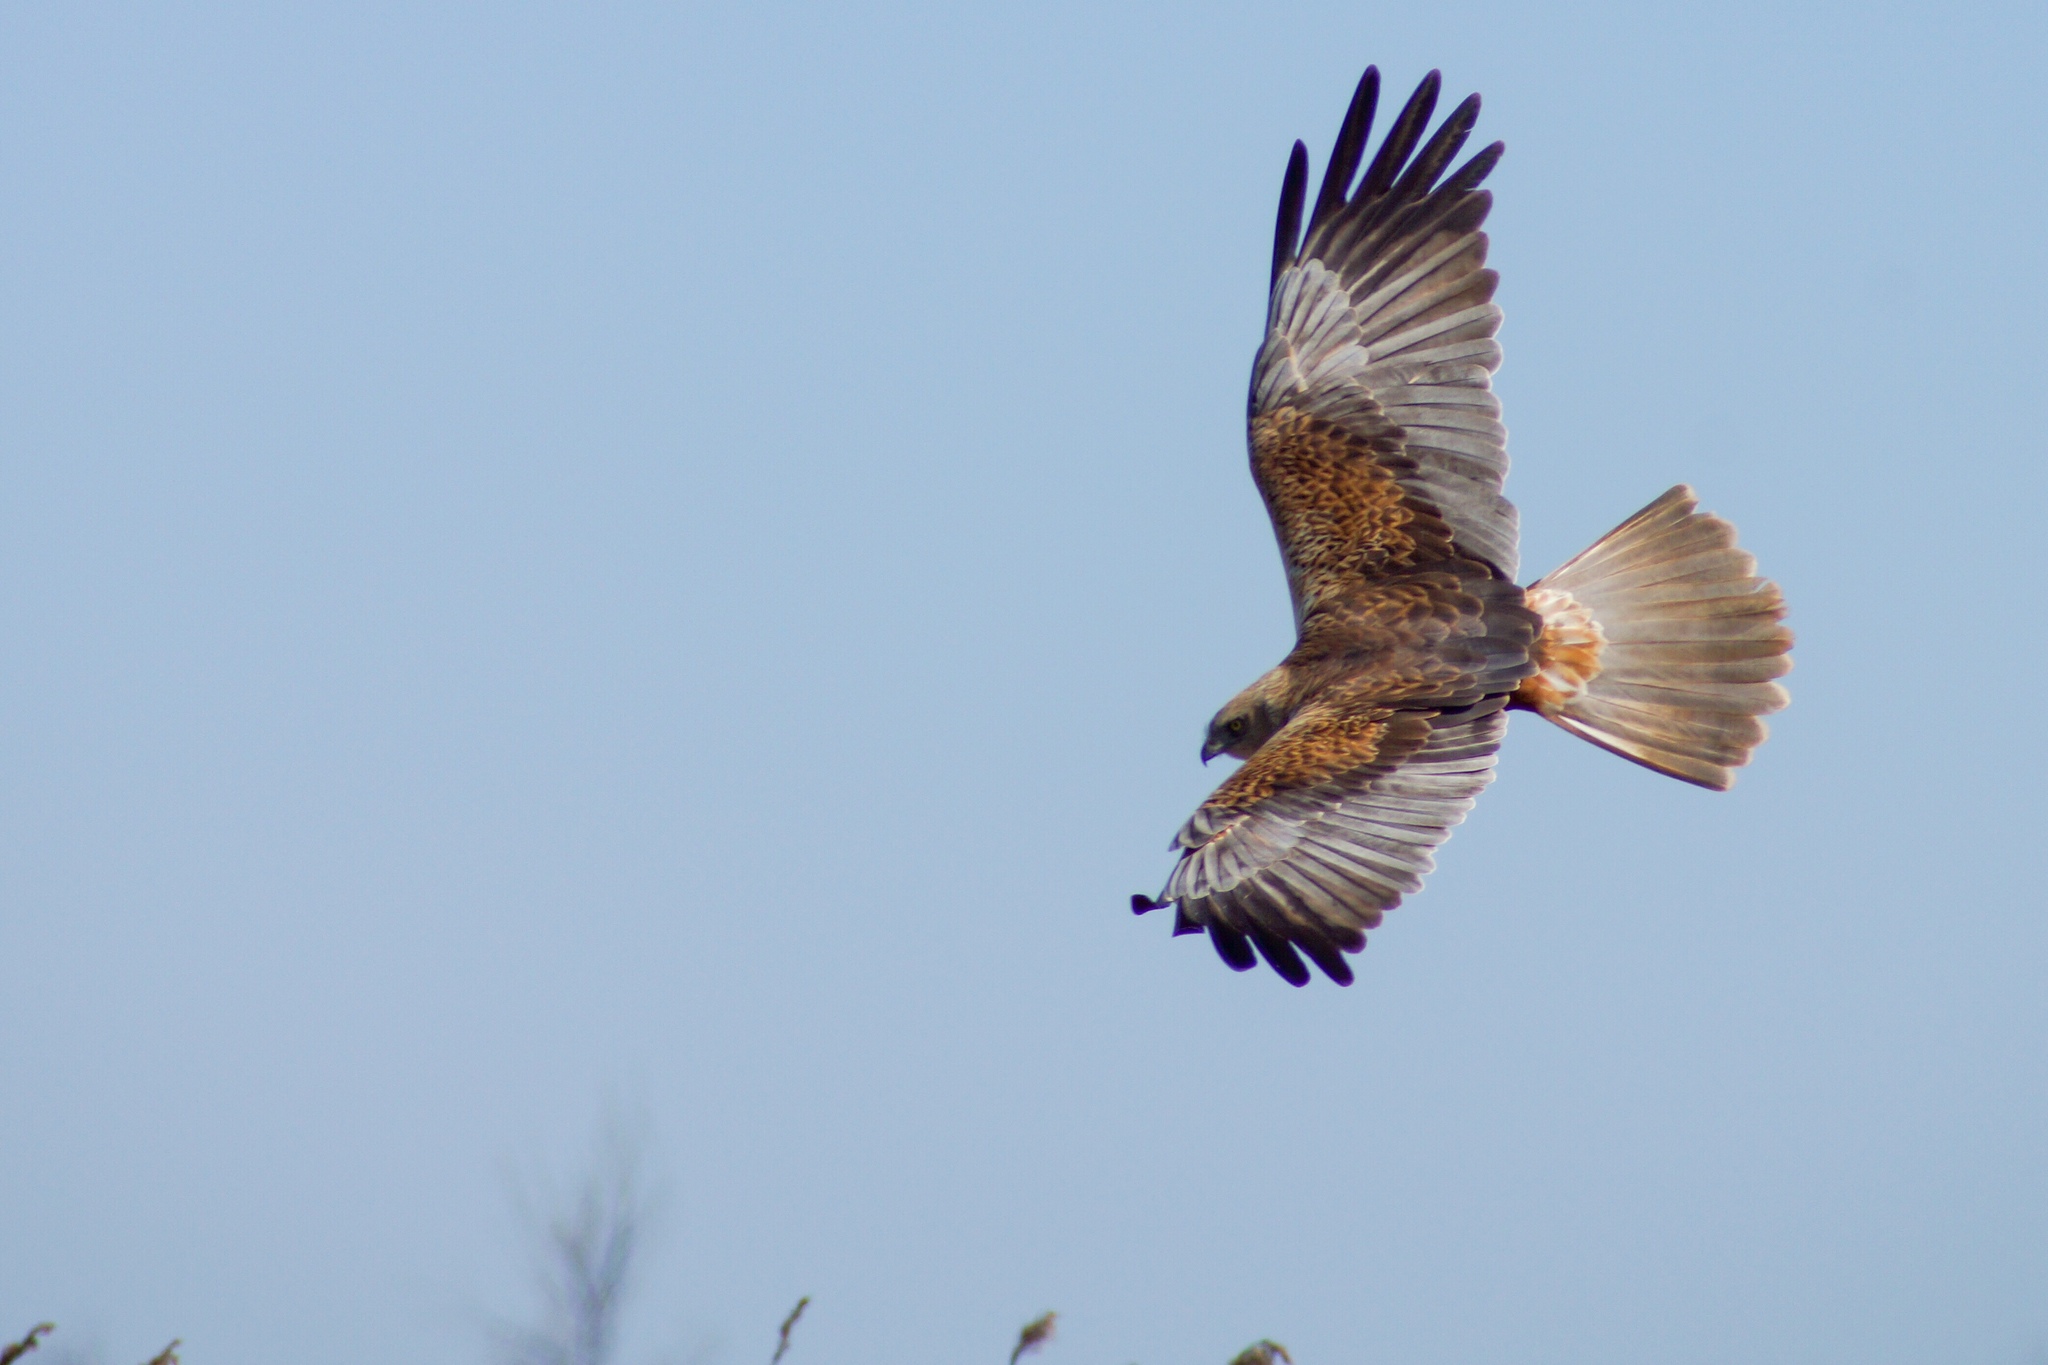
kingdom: Animalia
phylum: Chordata
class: Aves
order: Accipitriformes
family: Accipitridae
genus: Circus
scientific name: Circus aeruginosus
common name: Western marsh harrier
